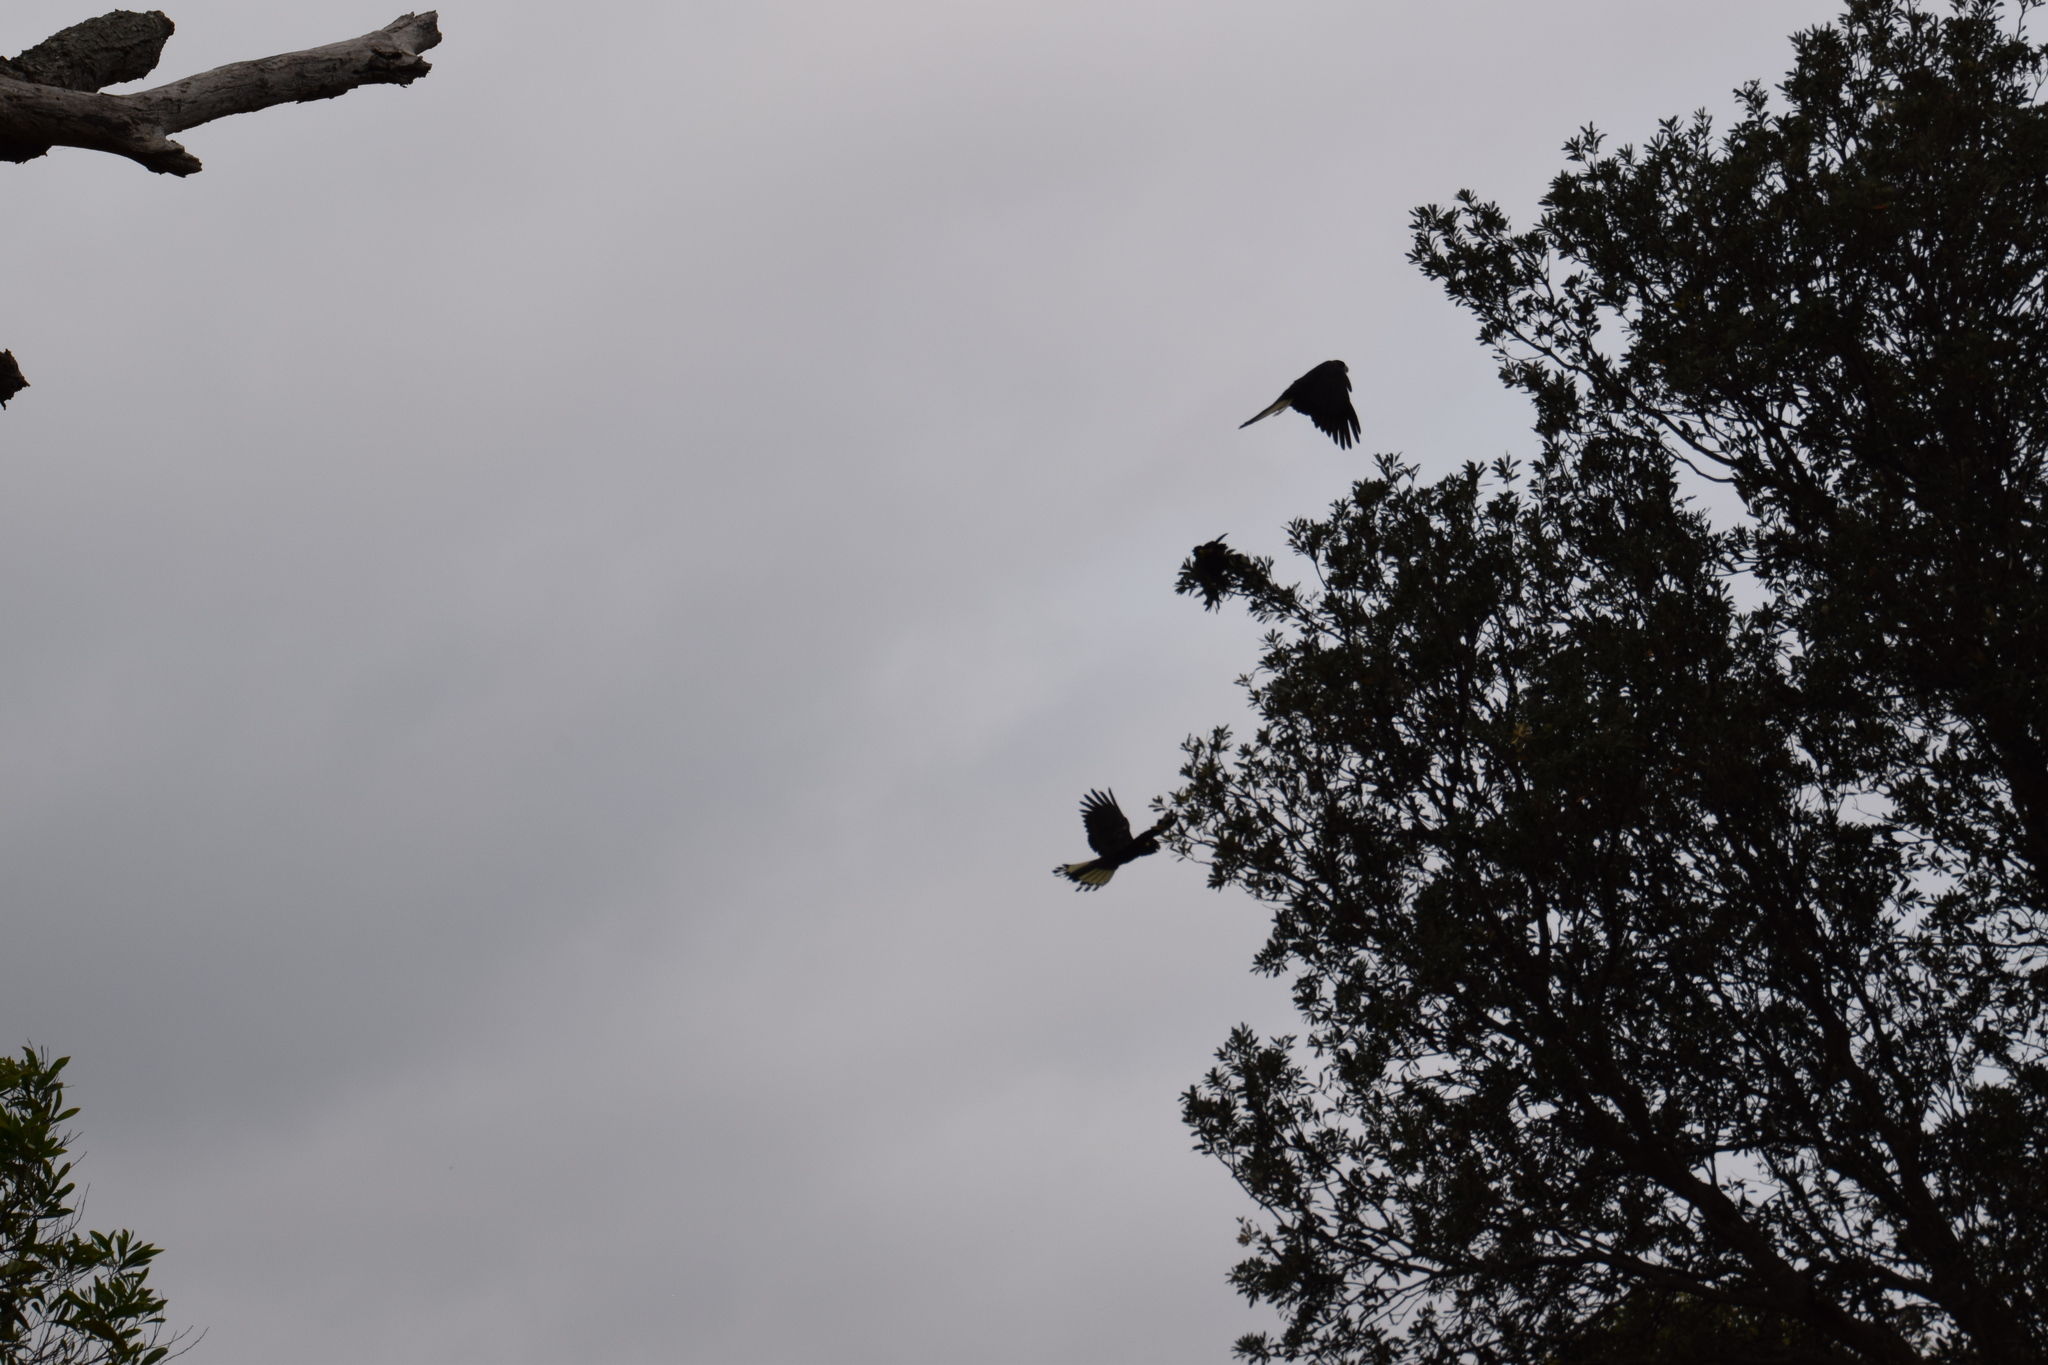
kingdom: Animalia
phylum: Chordata
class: Aves
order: Psittaciformes
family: Cacatuidae
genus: Zanda
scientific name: Zanda funerea
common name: Yellow-tailed black-cockatoo
